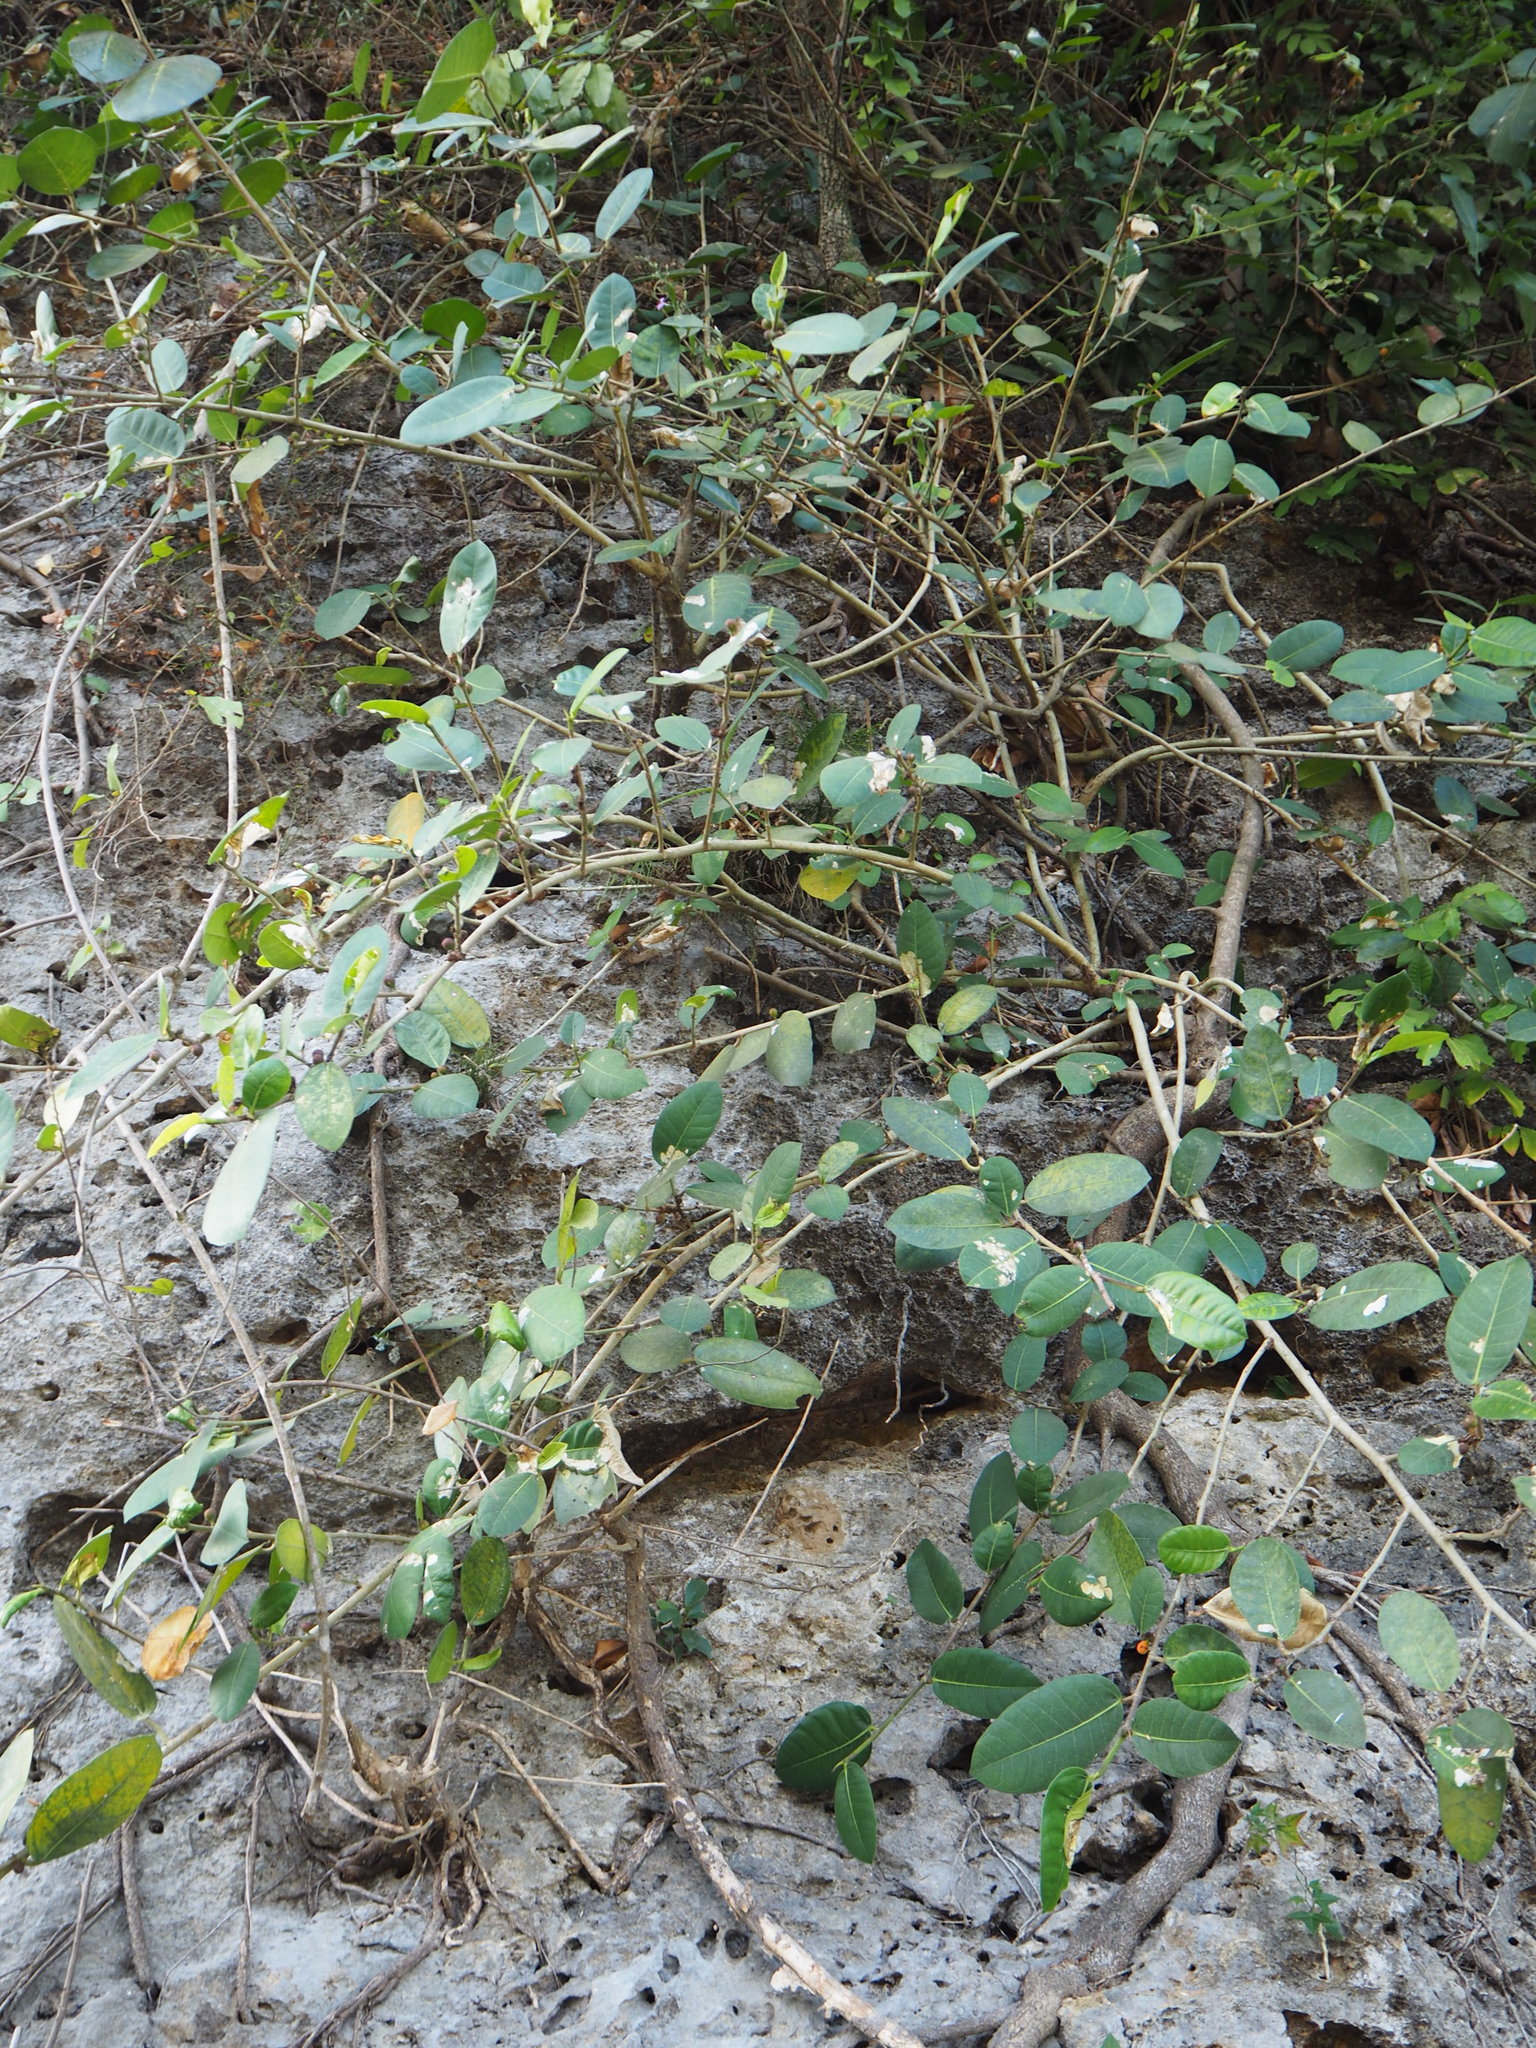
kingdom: Plantae
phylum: Tracheophyta
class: Magnoliopsida
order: Rosales
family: Moraceae
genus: Ficus
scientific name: Ficus tinctoria
